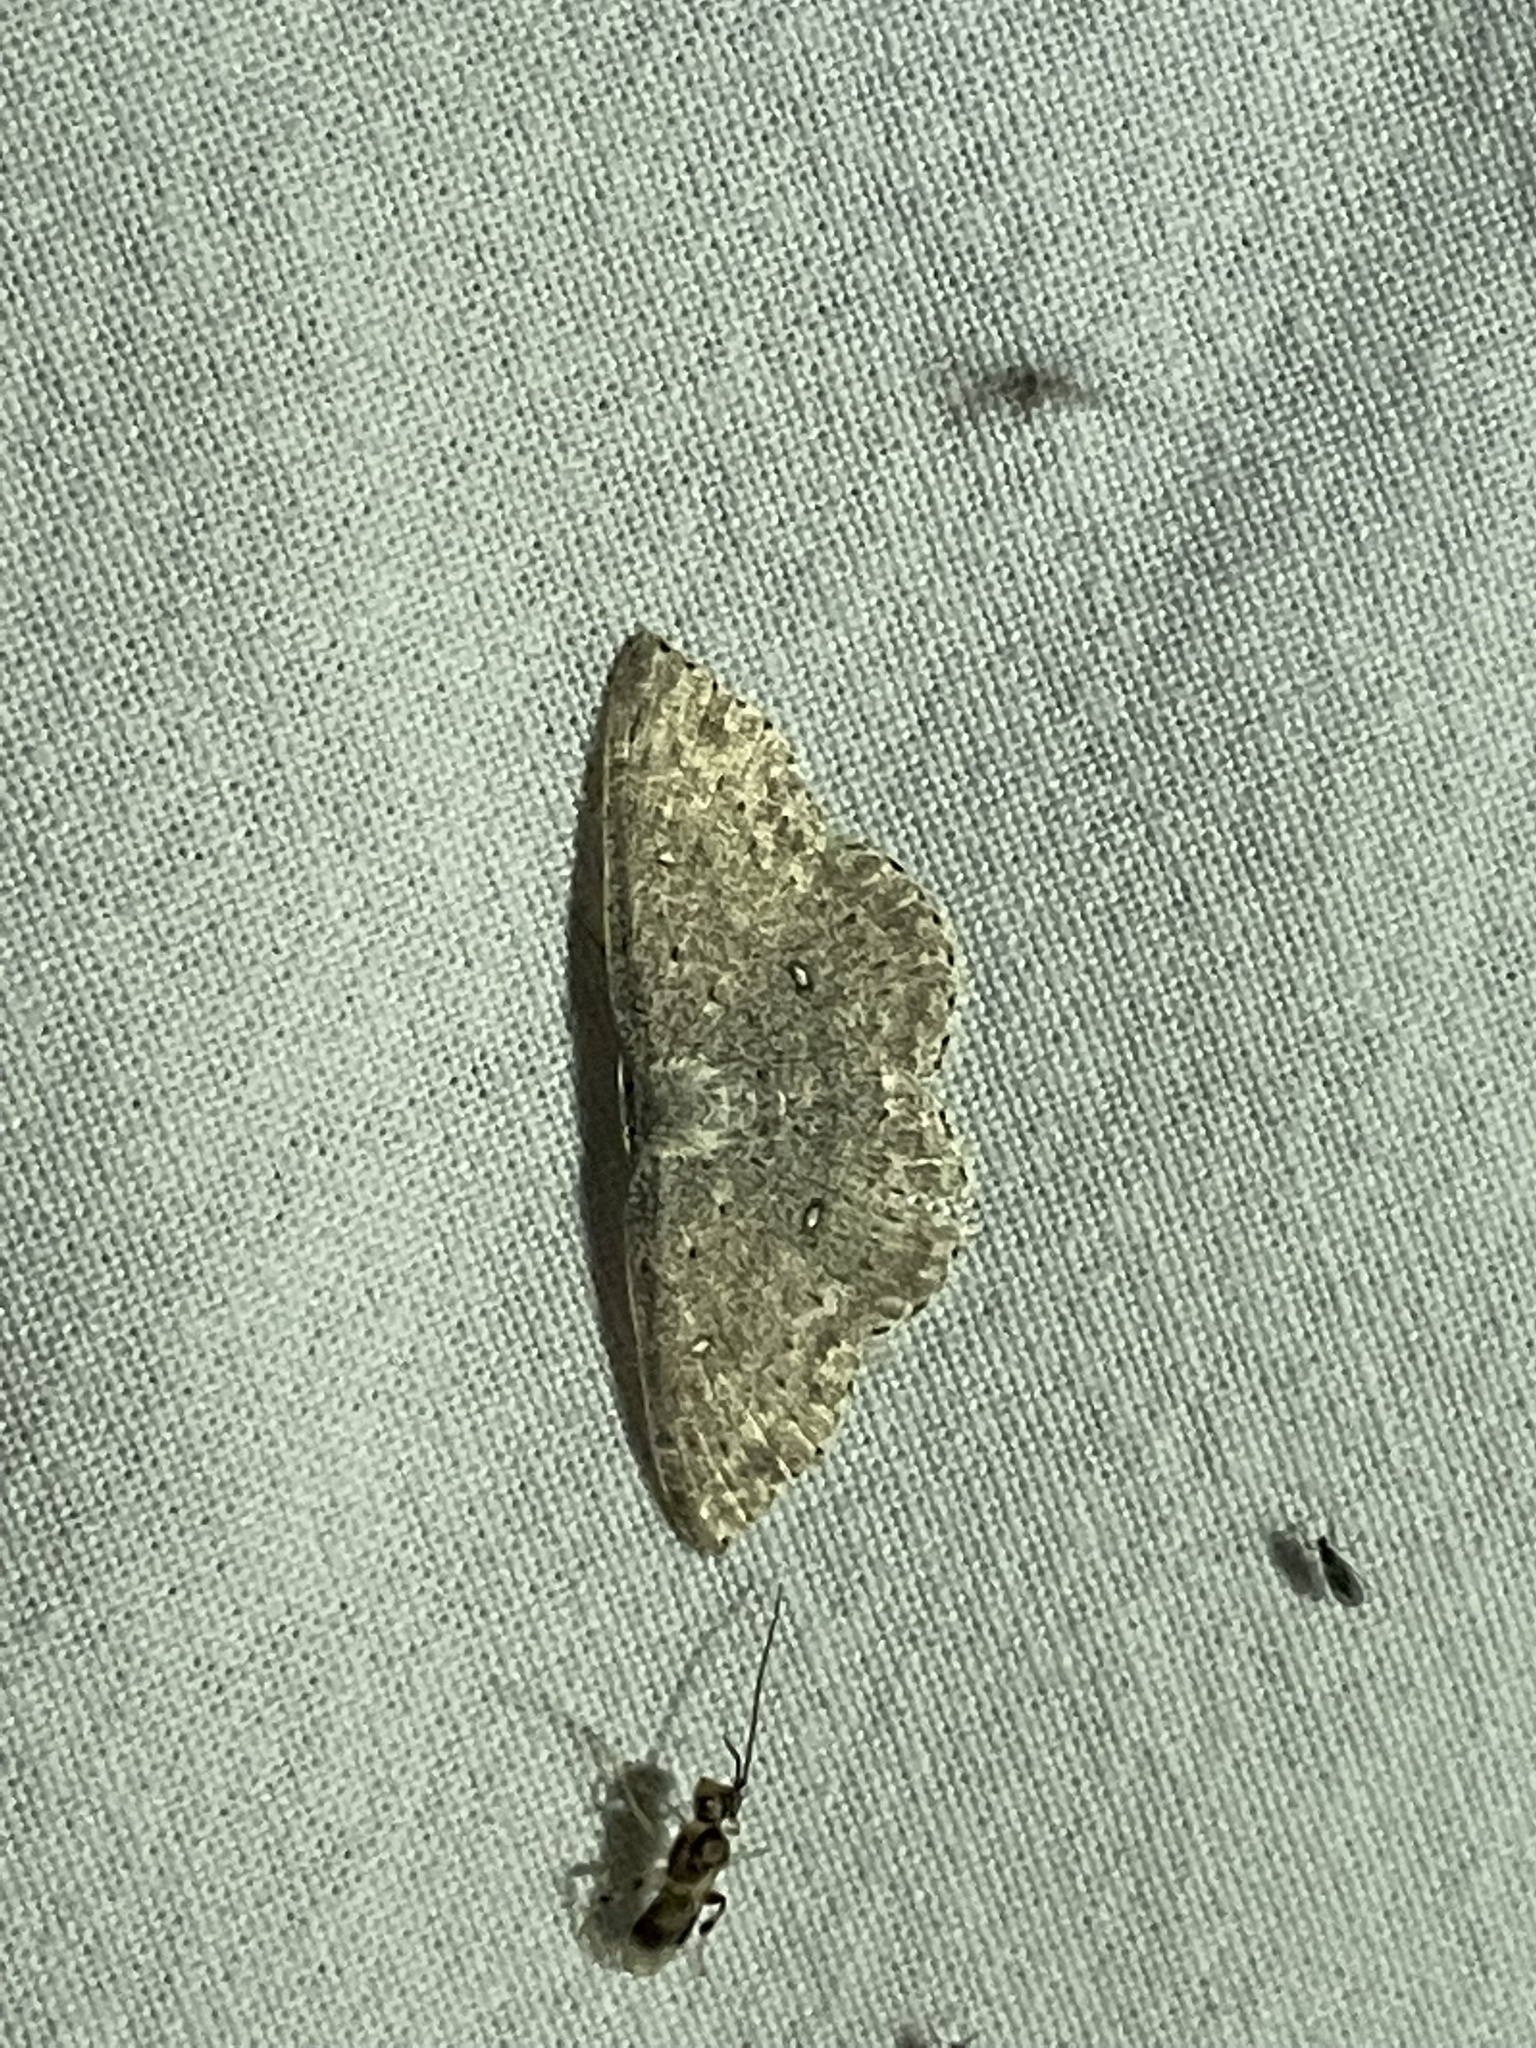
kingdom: Animalia
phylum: Arthropoda
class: Insecta
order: Lepidoptera
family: Geometridae
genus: Cyclophora
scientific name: Cyclophora pendulinaria
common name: Sweet fern geometer
